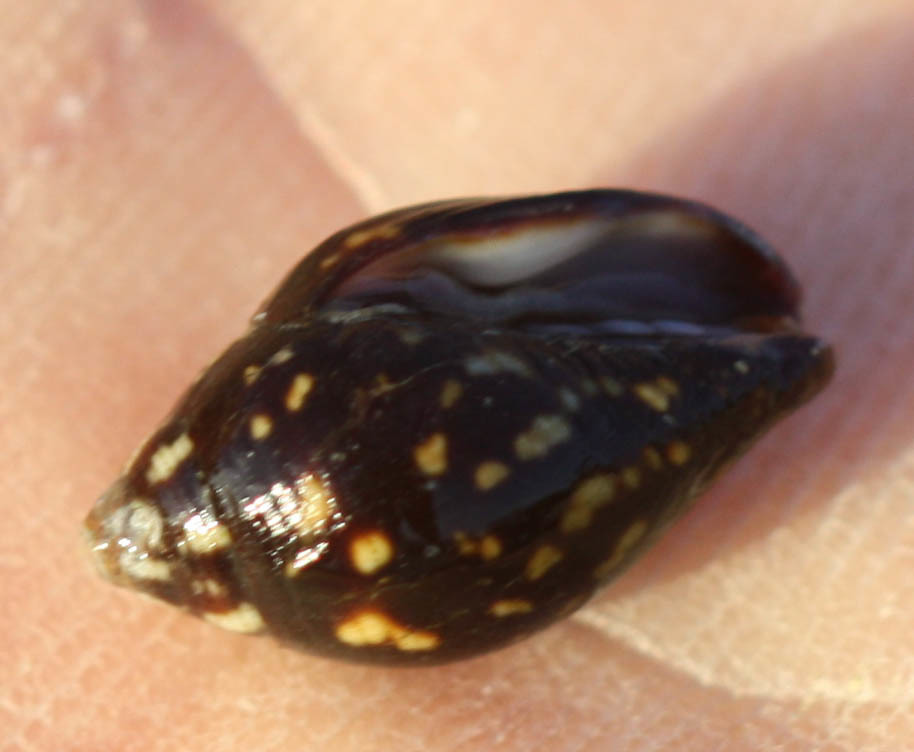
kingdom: Animalia
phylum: Mollusca
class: Gastropoda
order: Neogastropoda
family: Mitridae
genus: Strigatella
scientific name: Strigatella litterata
